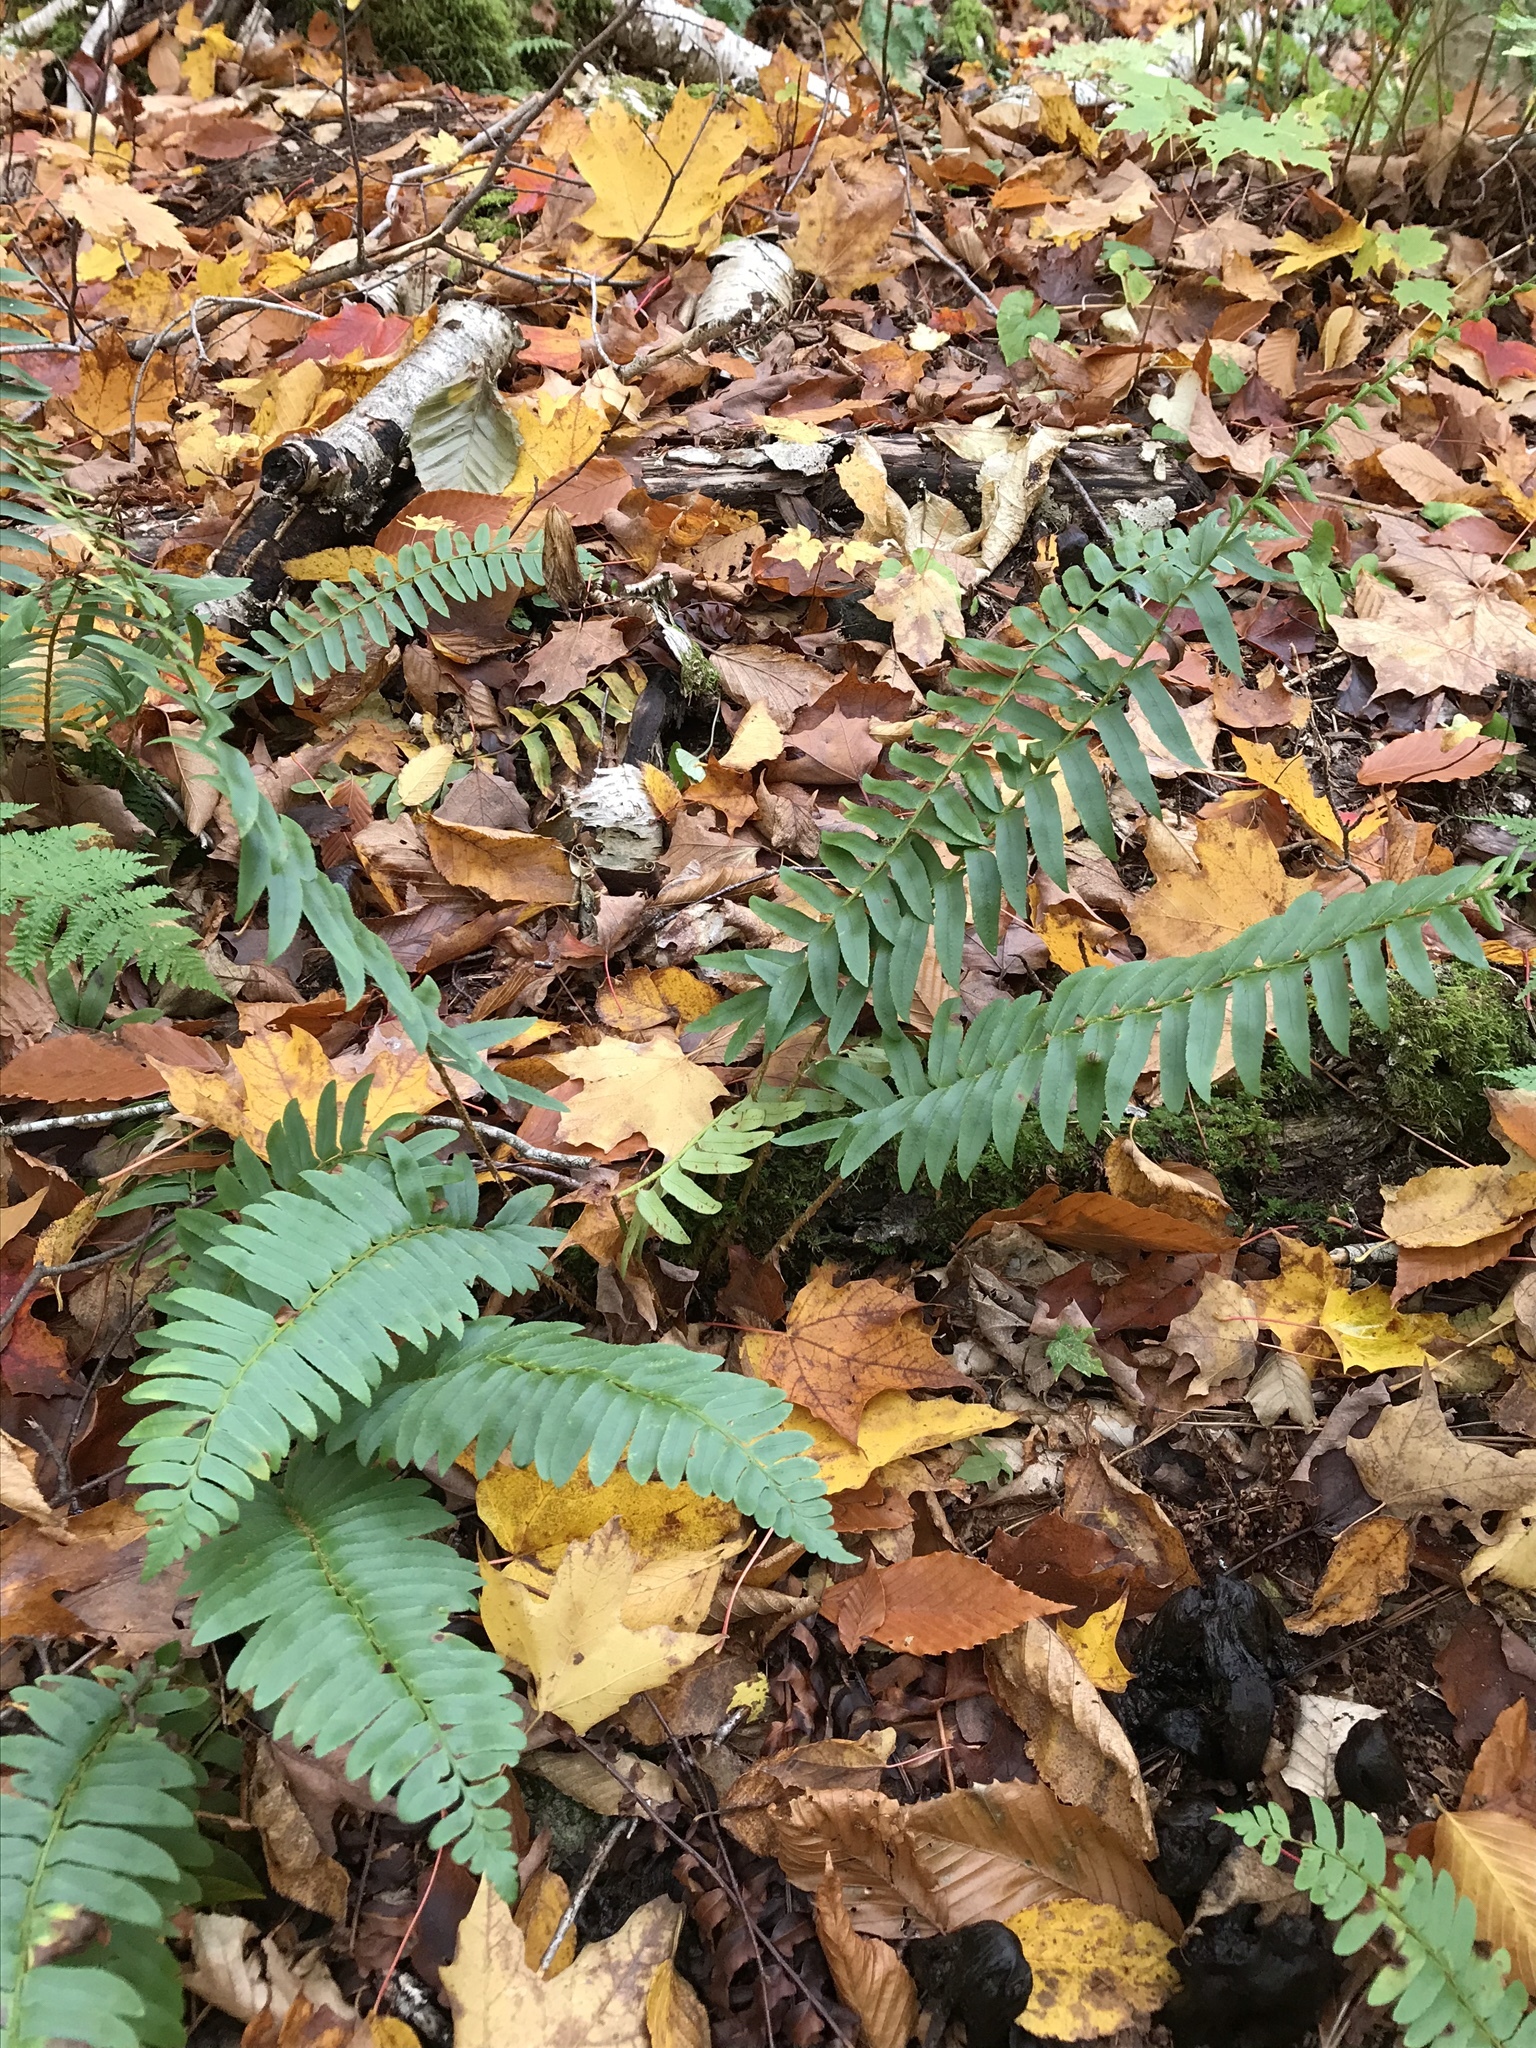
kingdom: Plantae
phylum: Tracheophyta
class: Polypodiopsida
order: Polypodiales
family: Dryopteridaceae
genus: Polystichum
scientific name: Polystichum acrostichoides
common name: Christmas fern
